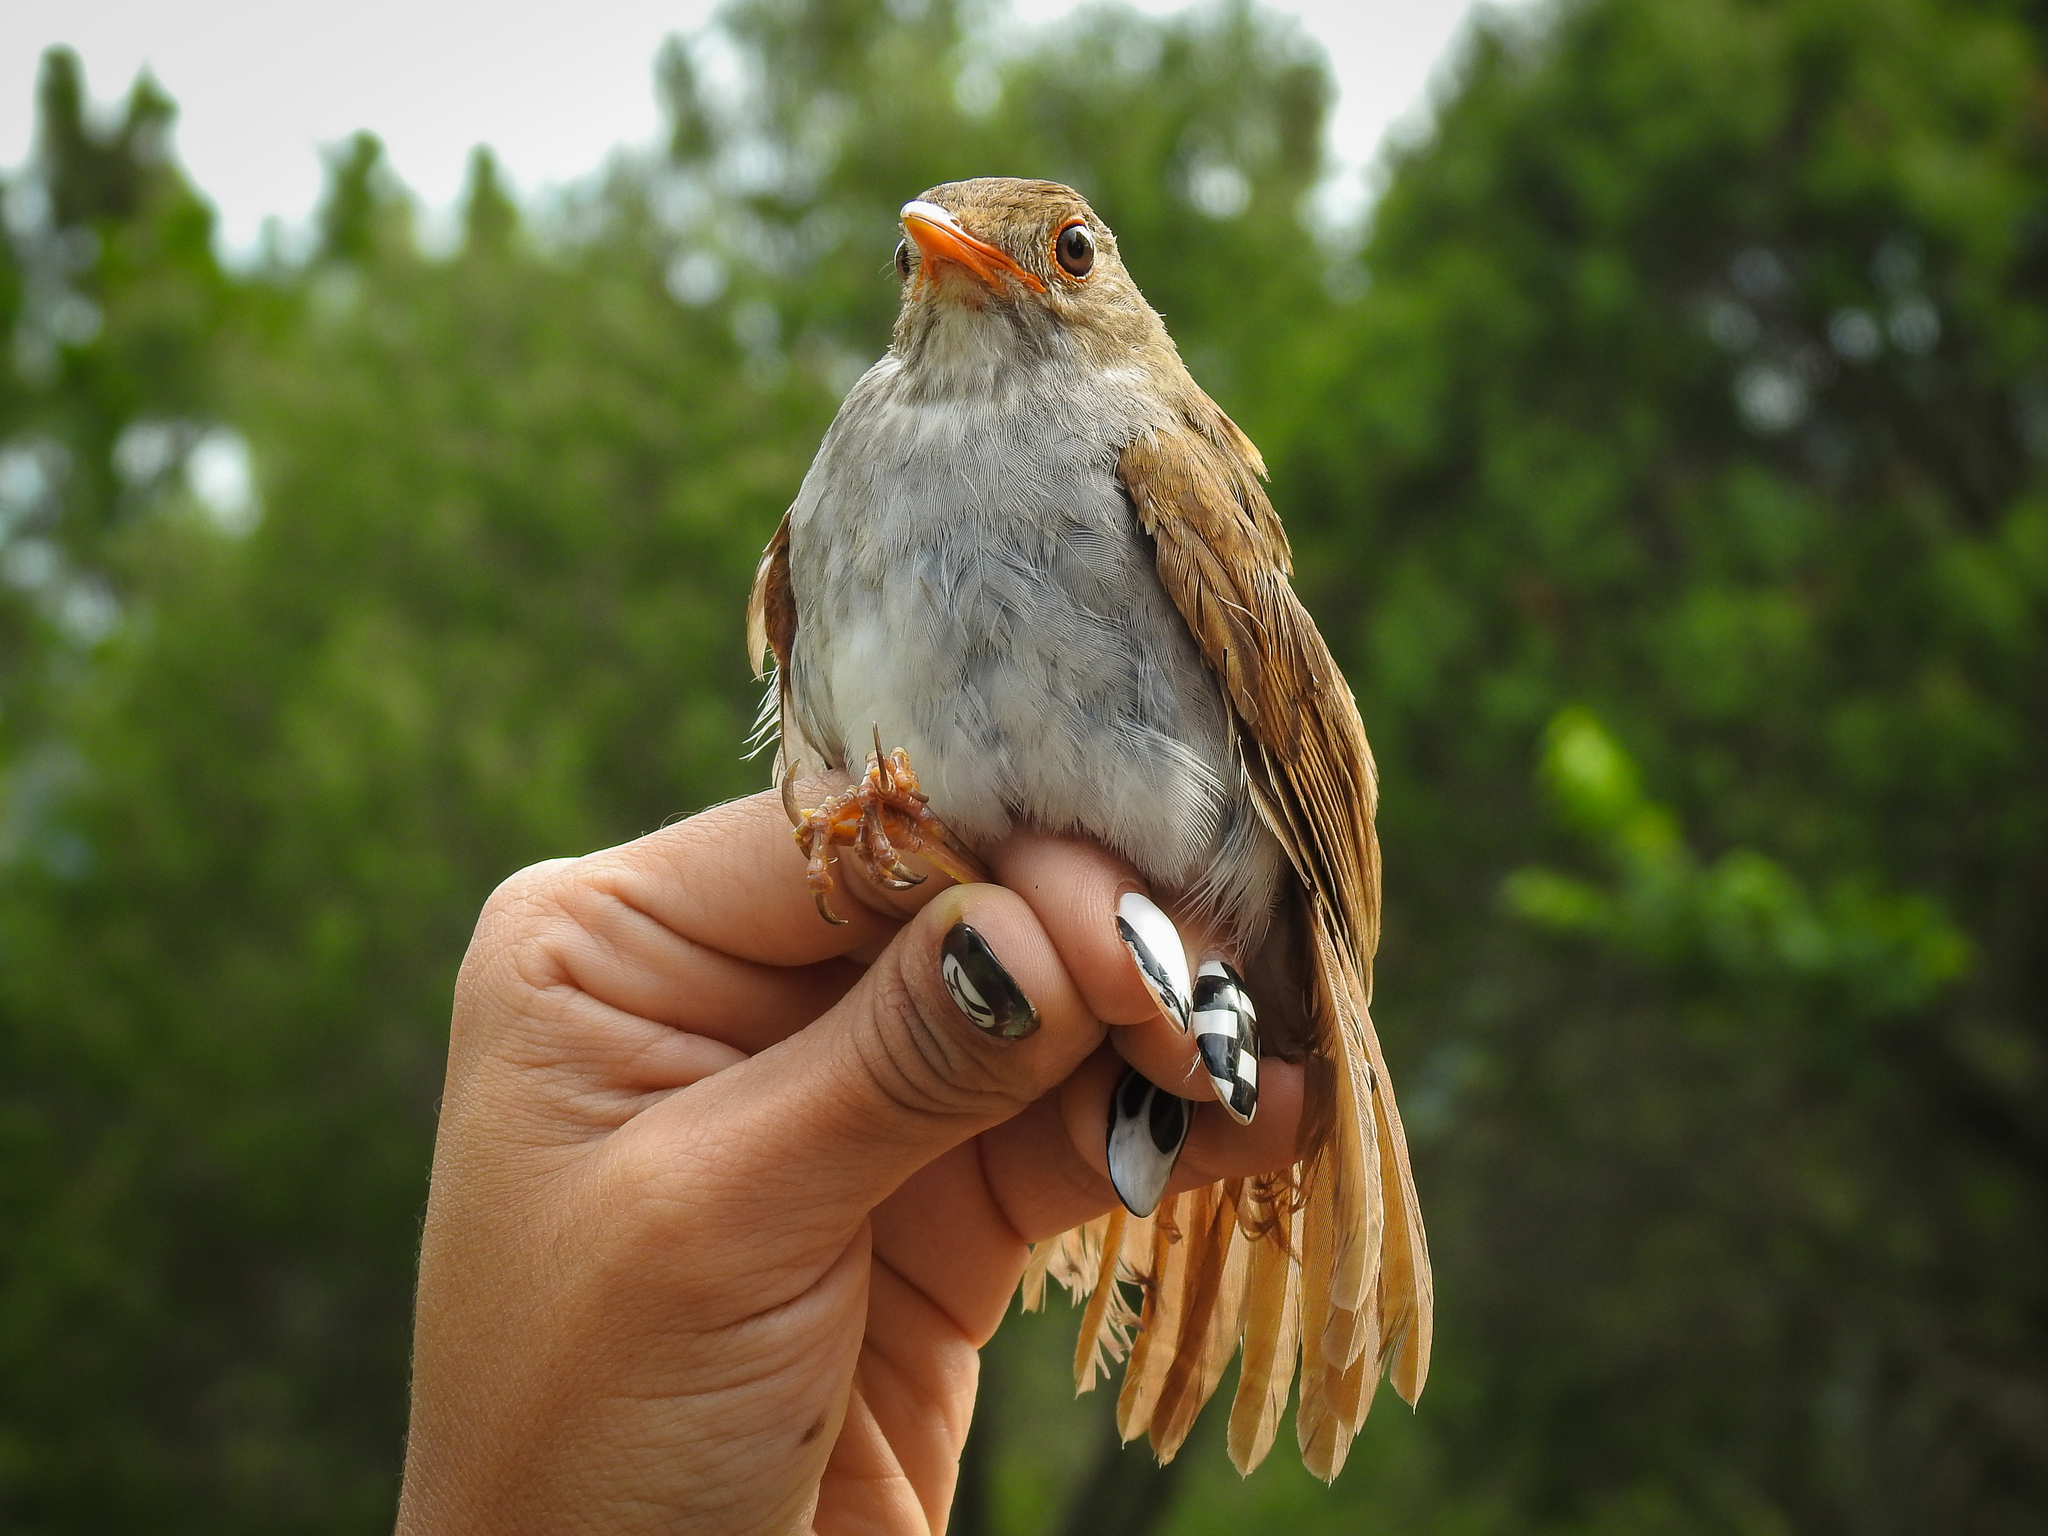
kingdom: Animalia
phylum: Chordata
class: Aves
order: Passeriformes
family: Turdidae
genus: Catharus
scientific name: Catharus aurantiirostris
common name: Orange-billed nightingale-thrush
